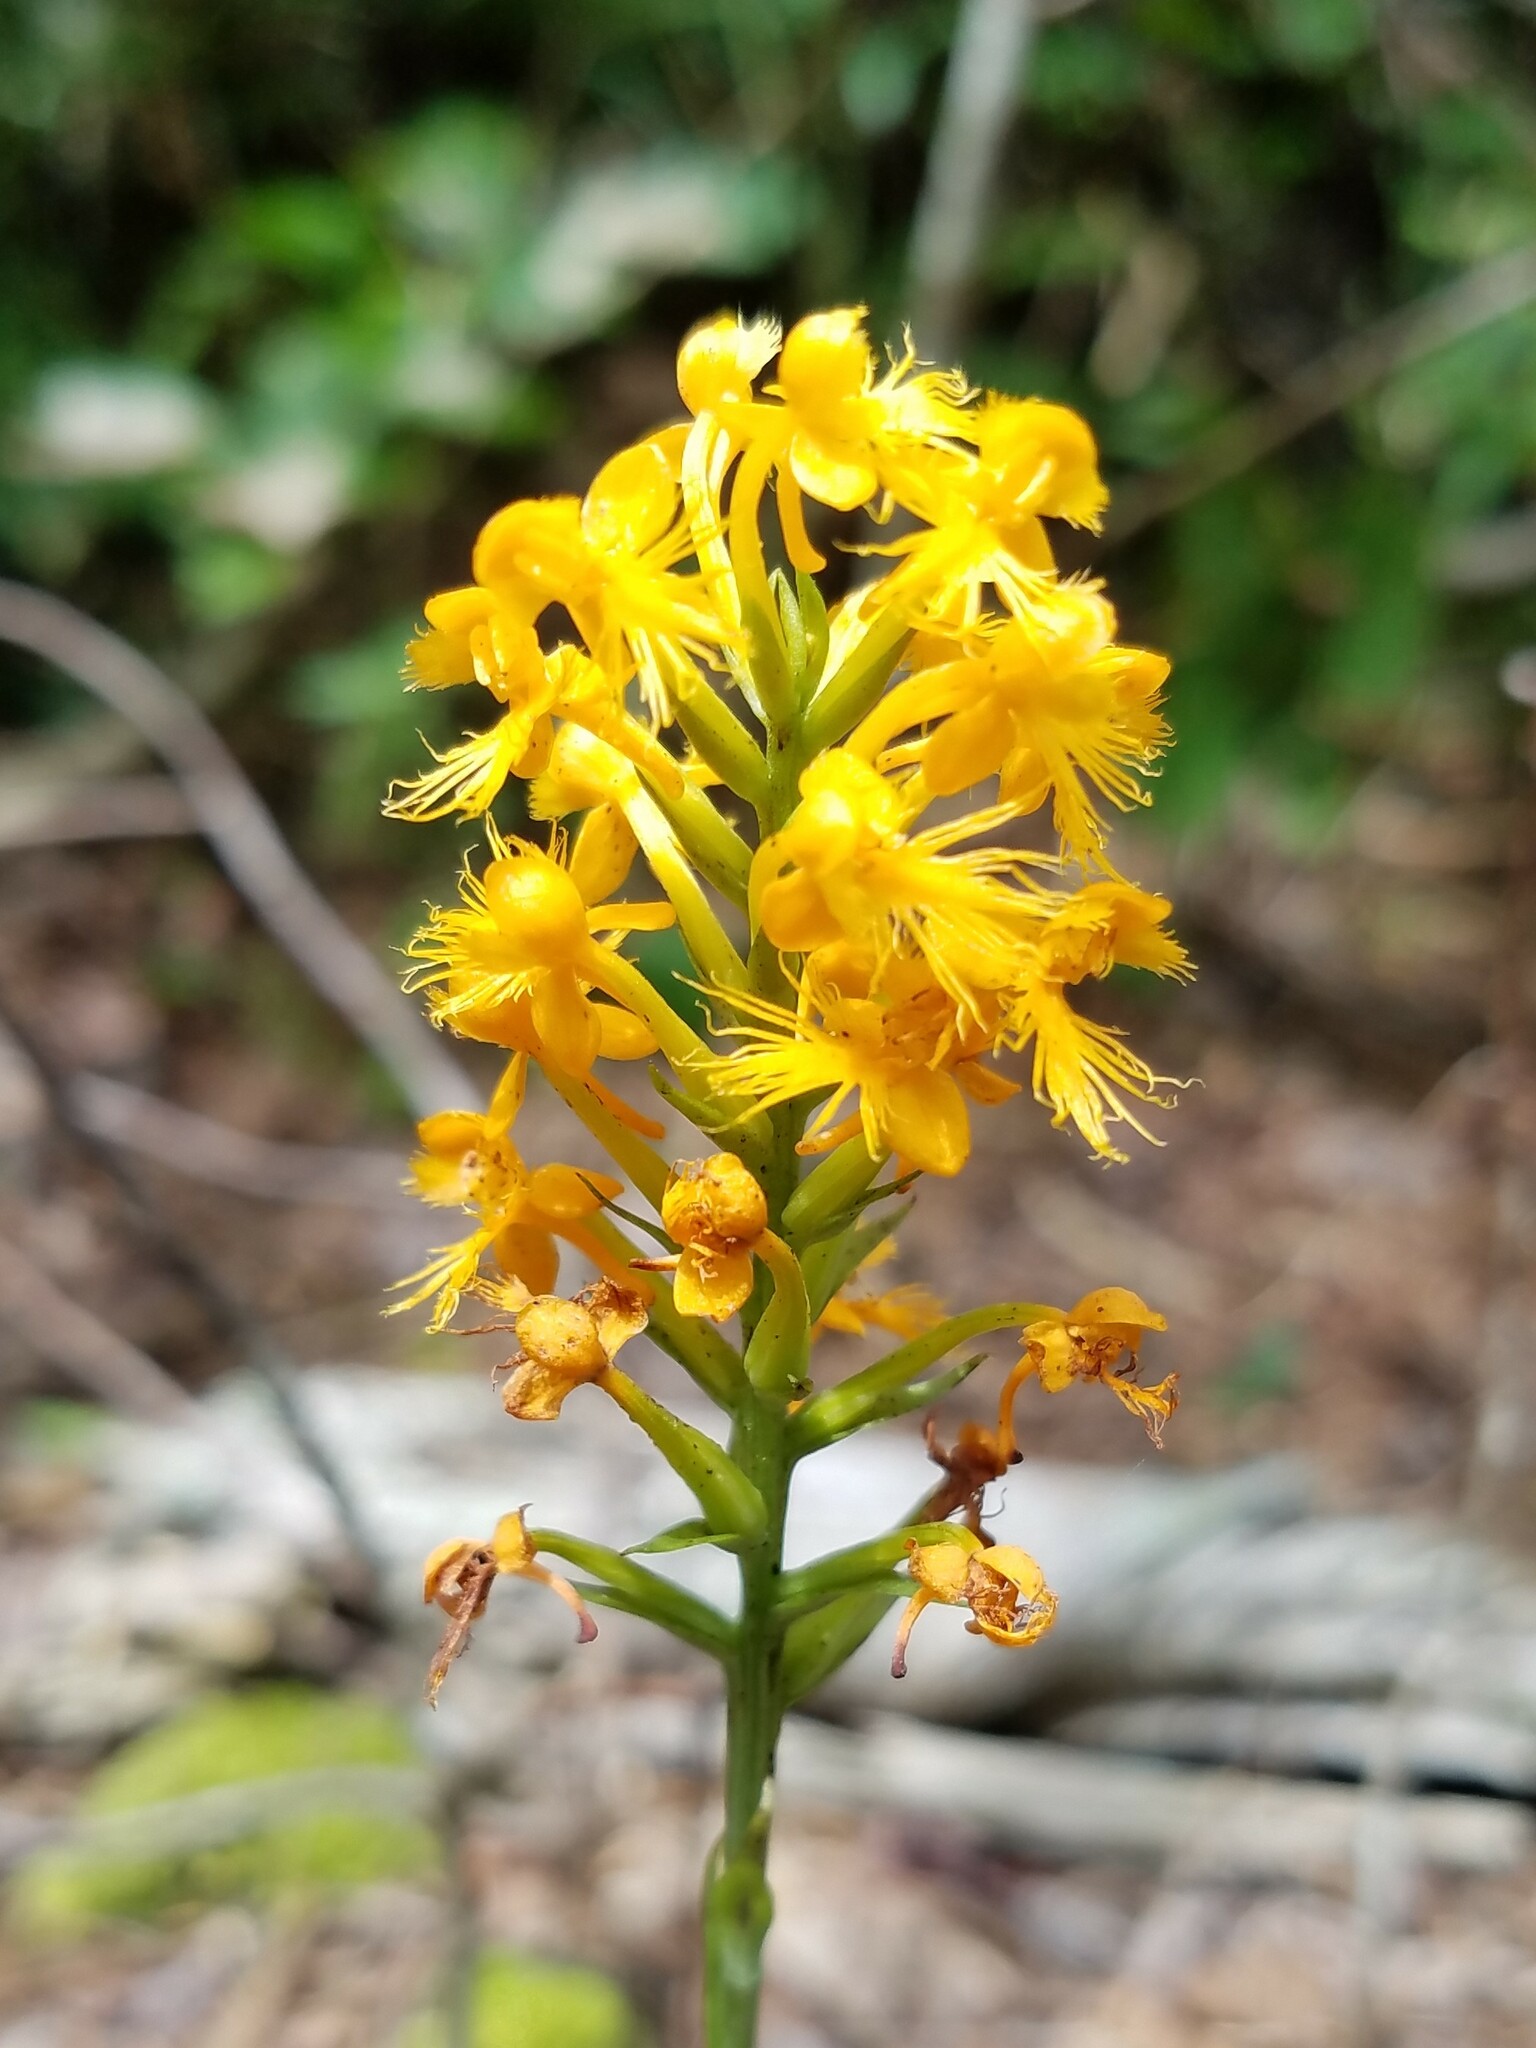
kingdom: Plantae
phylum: Tracheophyta
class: Liliopsida
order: Asparagales
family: Orchidaceae
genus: Platanthera
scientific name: Platanthera cristata
